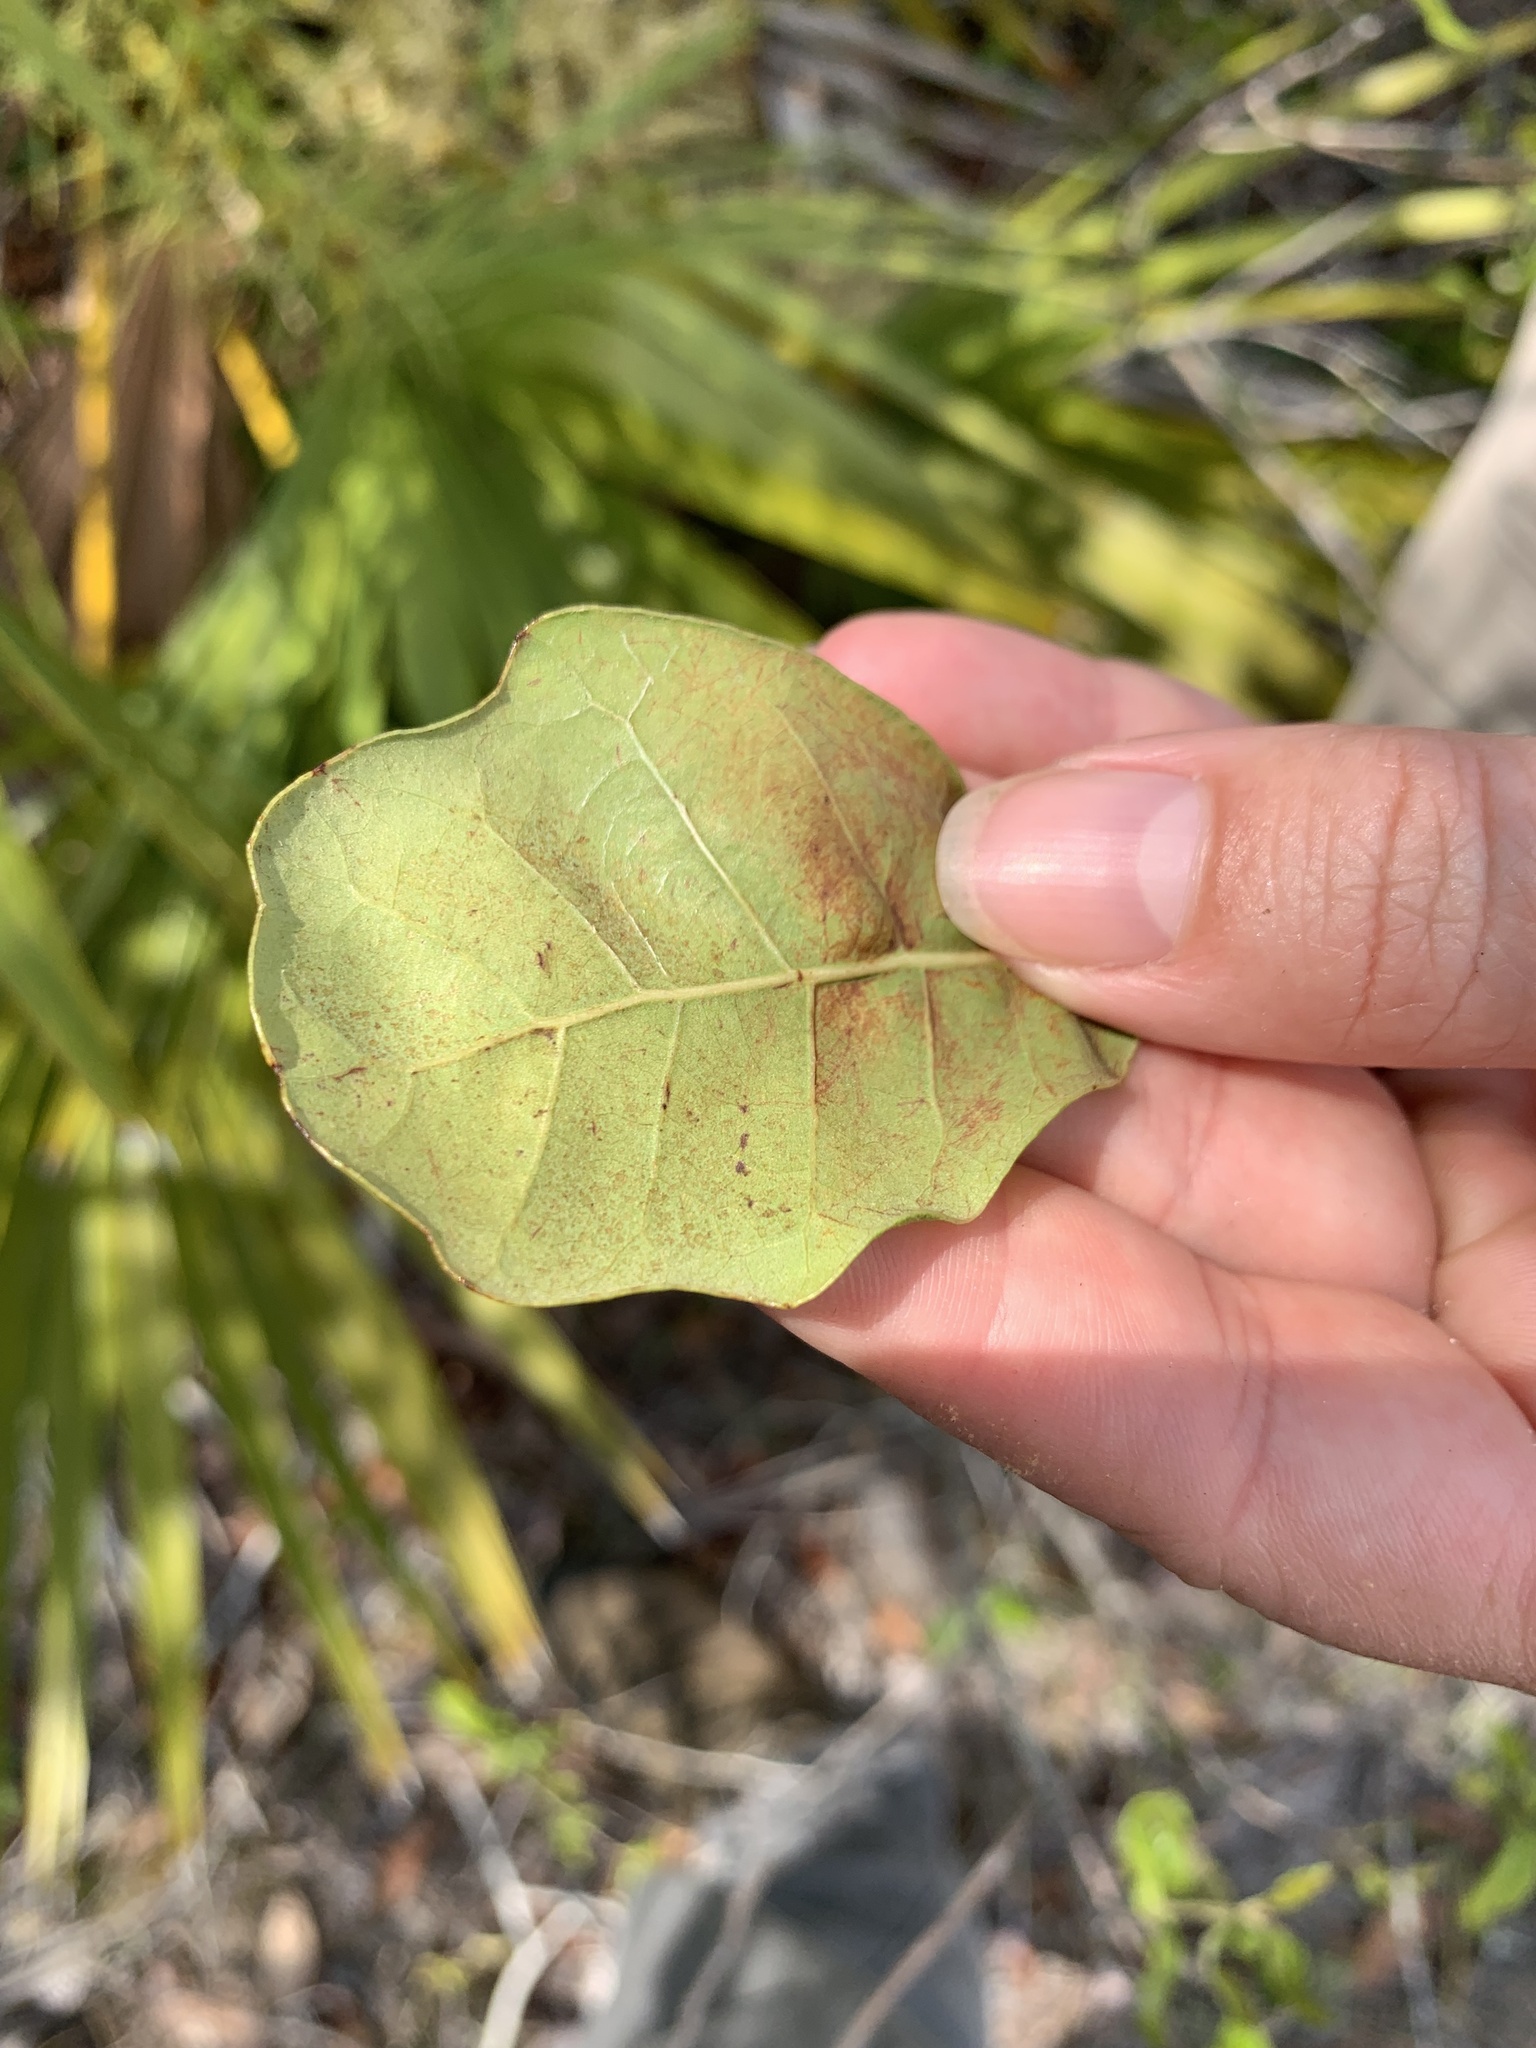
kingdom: Plantae
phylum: Tracheophyta
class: Magnoliopsida
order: Fagales
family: Fagaceae
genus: Quercus
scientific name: Quercus chapmanii
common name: Chapman oak
